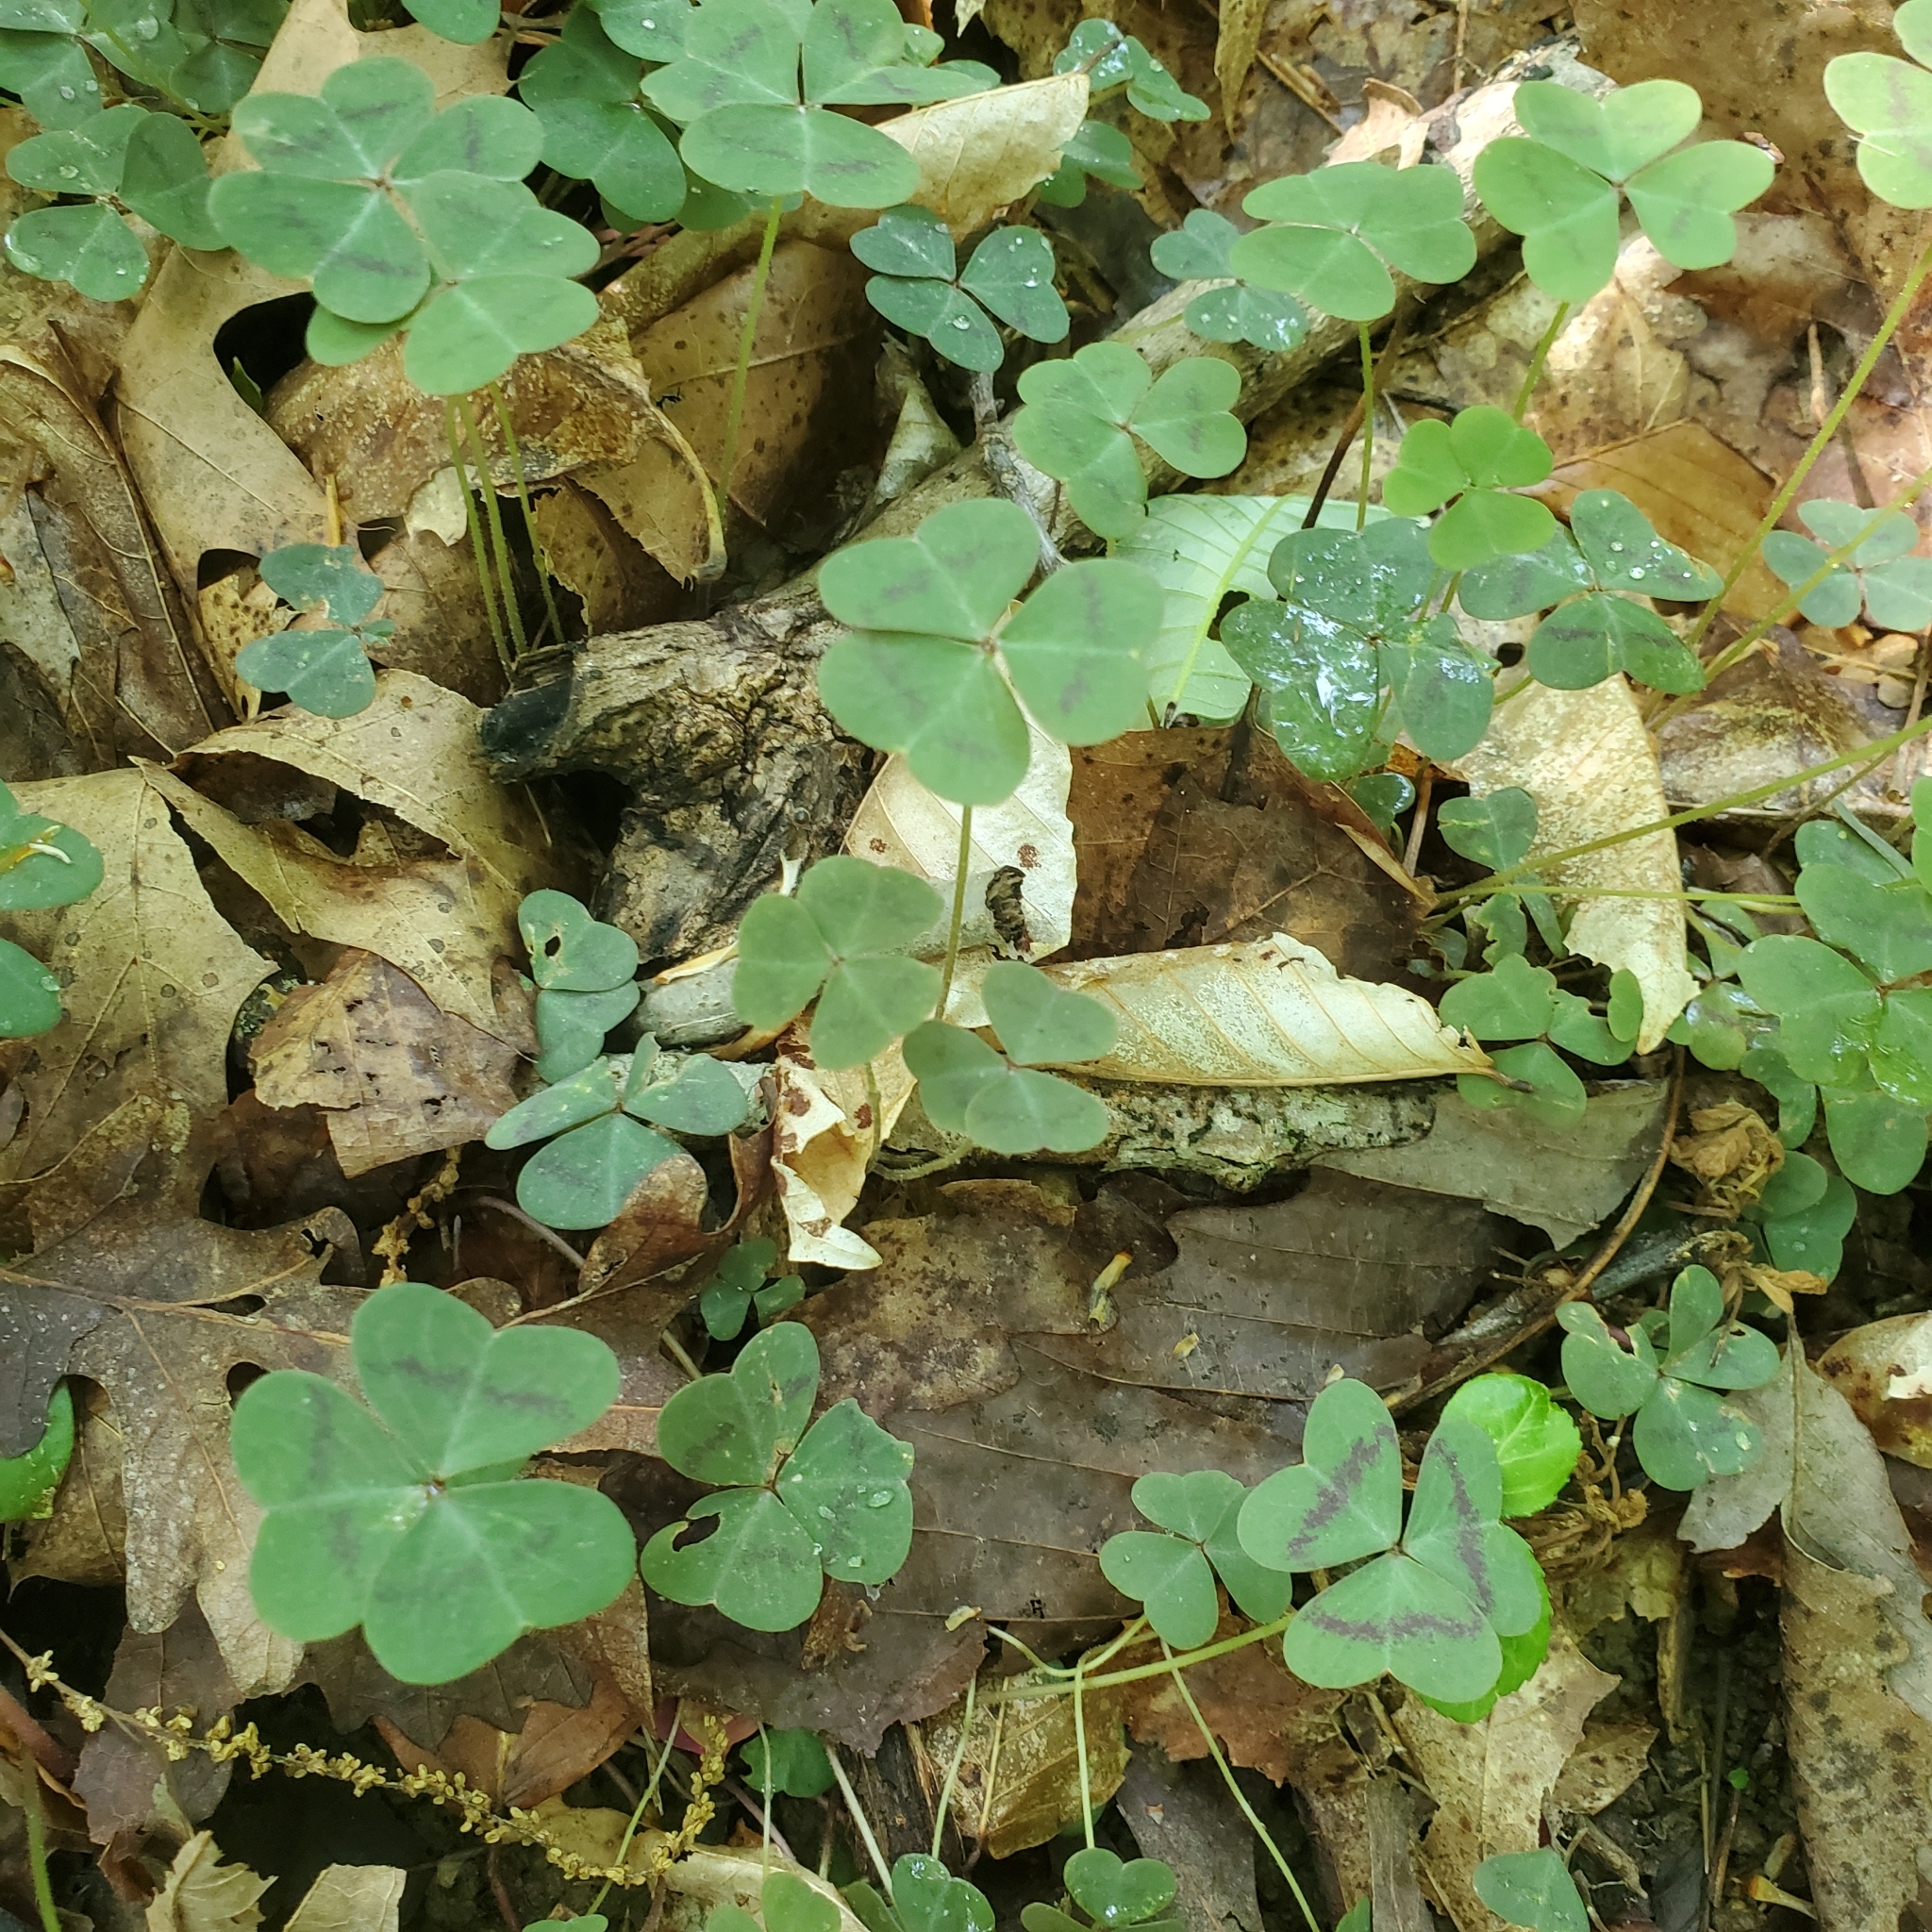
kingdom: Plantae
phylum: Tracheophyta
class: Magnoliopsida
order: Oxalidales
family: Oxalidaceae
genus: Oxalis
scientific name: Oxalis violacea
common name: Violet wood-sorrel
